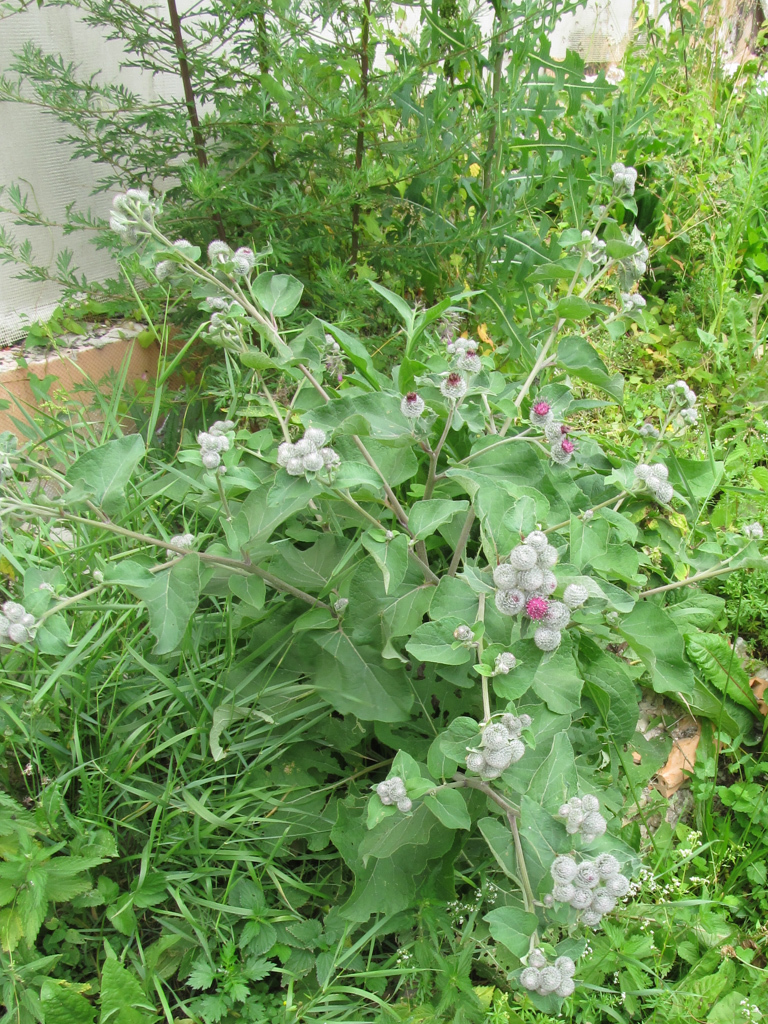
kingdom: Plantae
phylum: Tracheophyta
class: Magnoliopsida
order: Asterales
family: Asteraceae
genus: Arctium
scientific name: Arctium tomentosum
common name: Woolly burdock
